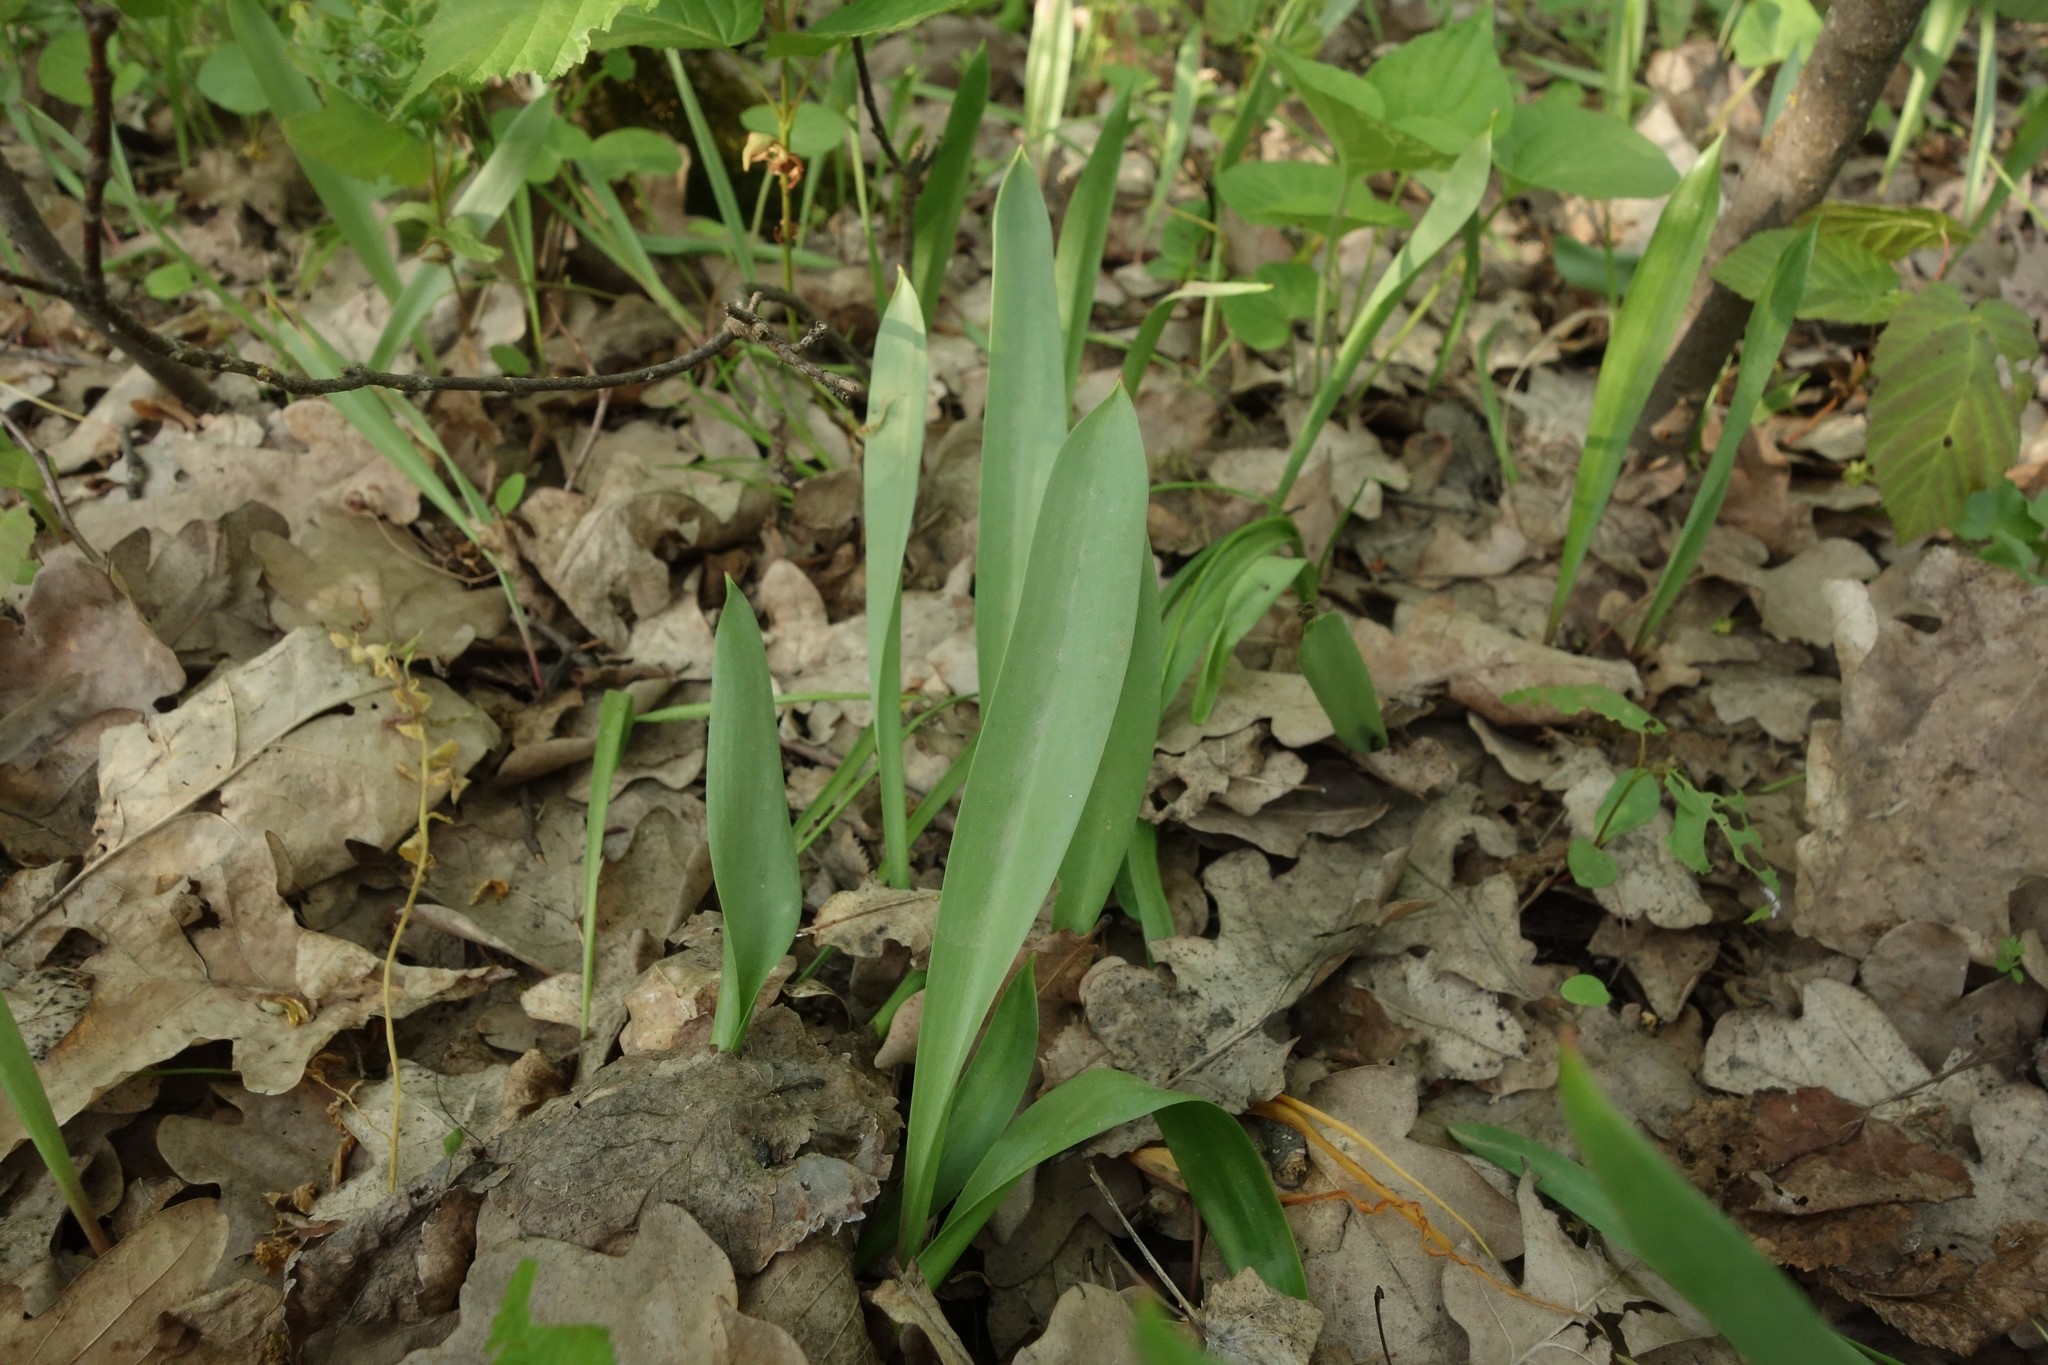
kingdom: Plantae
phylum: Tracheophyta
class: Liliopsida
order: Liliales
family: Liliaceae
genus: Tulipa
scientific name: Tulipa sylvestris
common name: Wild tulip
